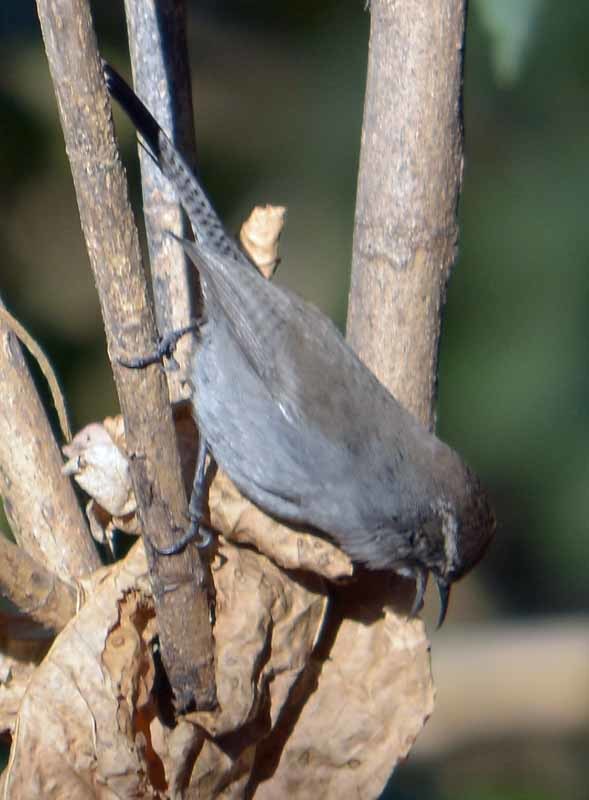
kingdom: Animalia
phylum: Chordata
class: Aves
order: Passeriformes
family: Troglodytidae
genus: Thryomanes
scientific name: Thryomanes bewickii
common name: Bewick's wren
